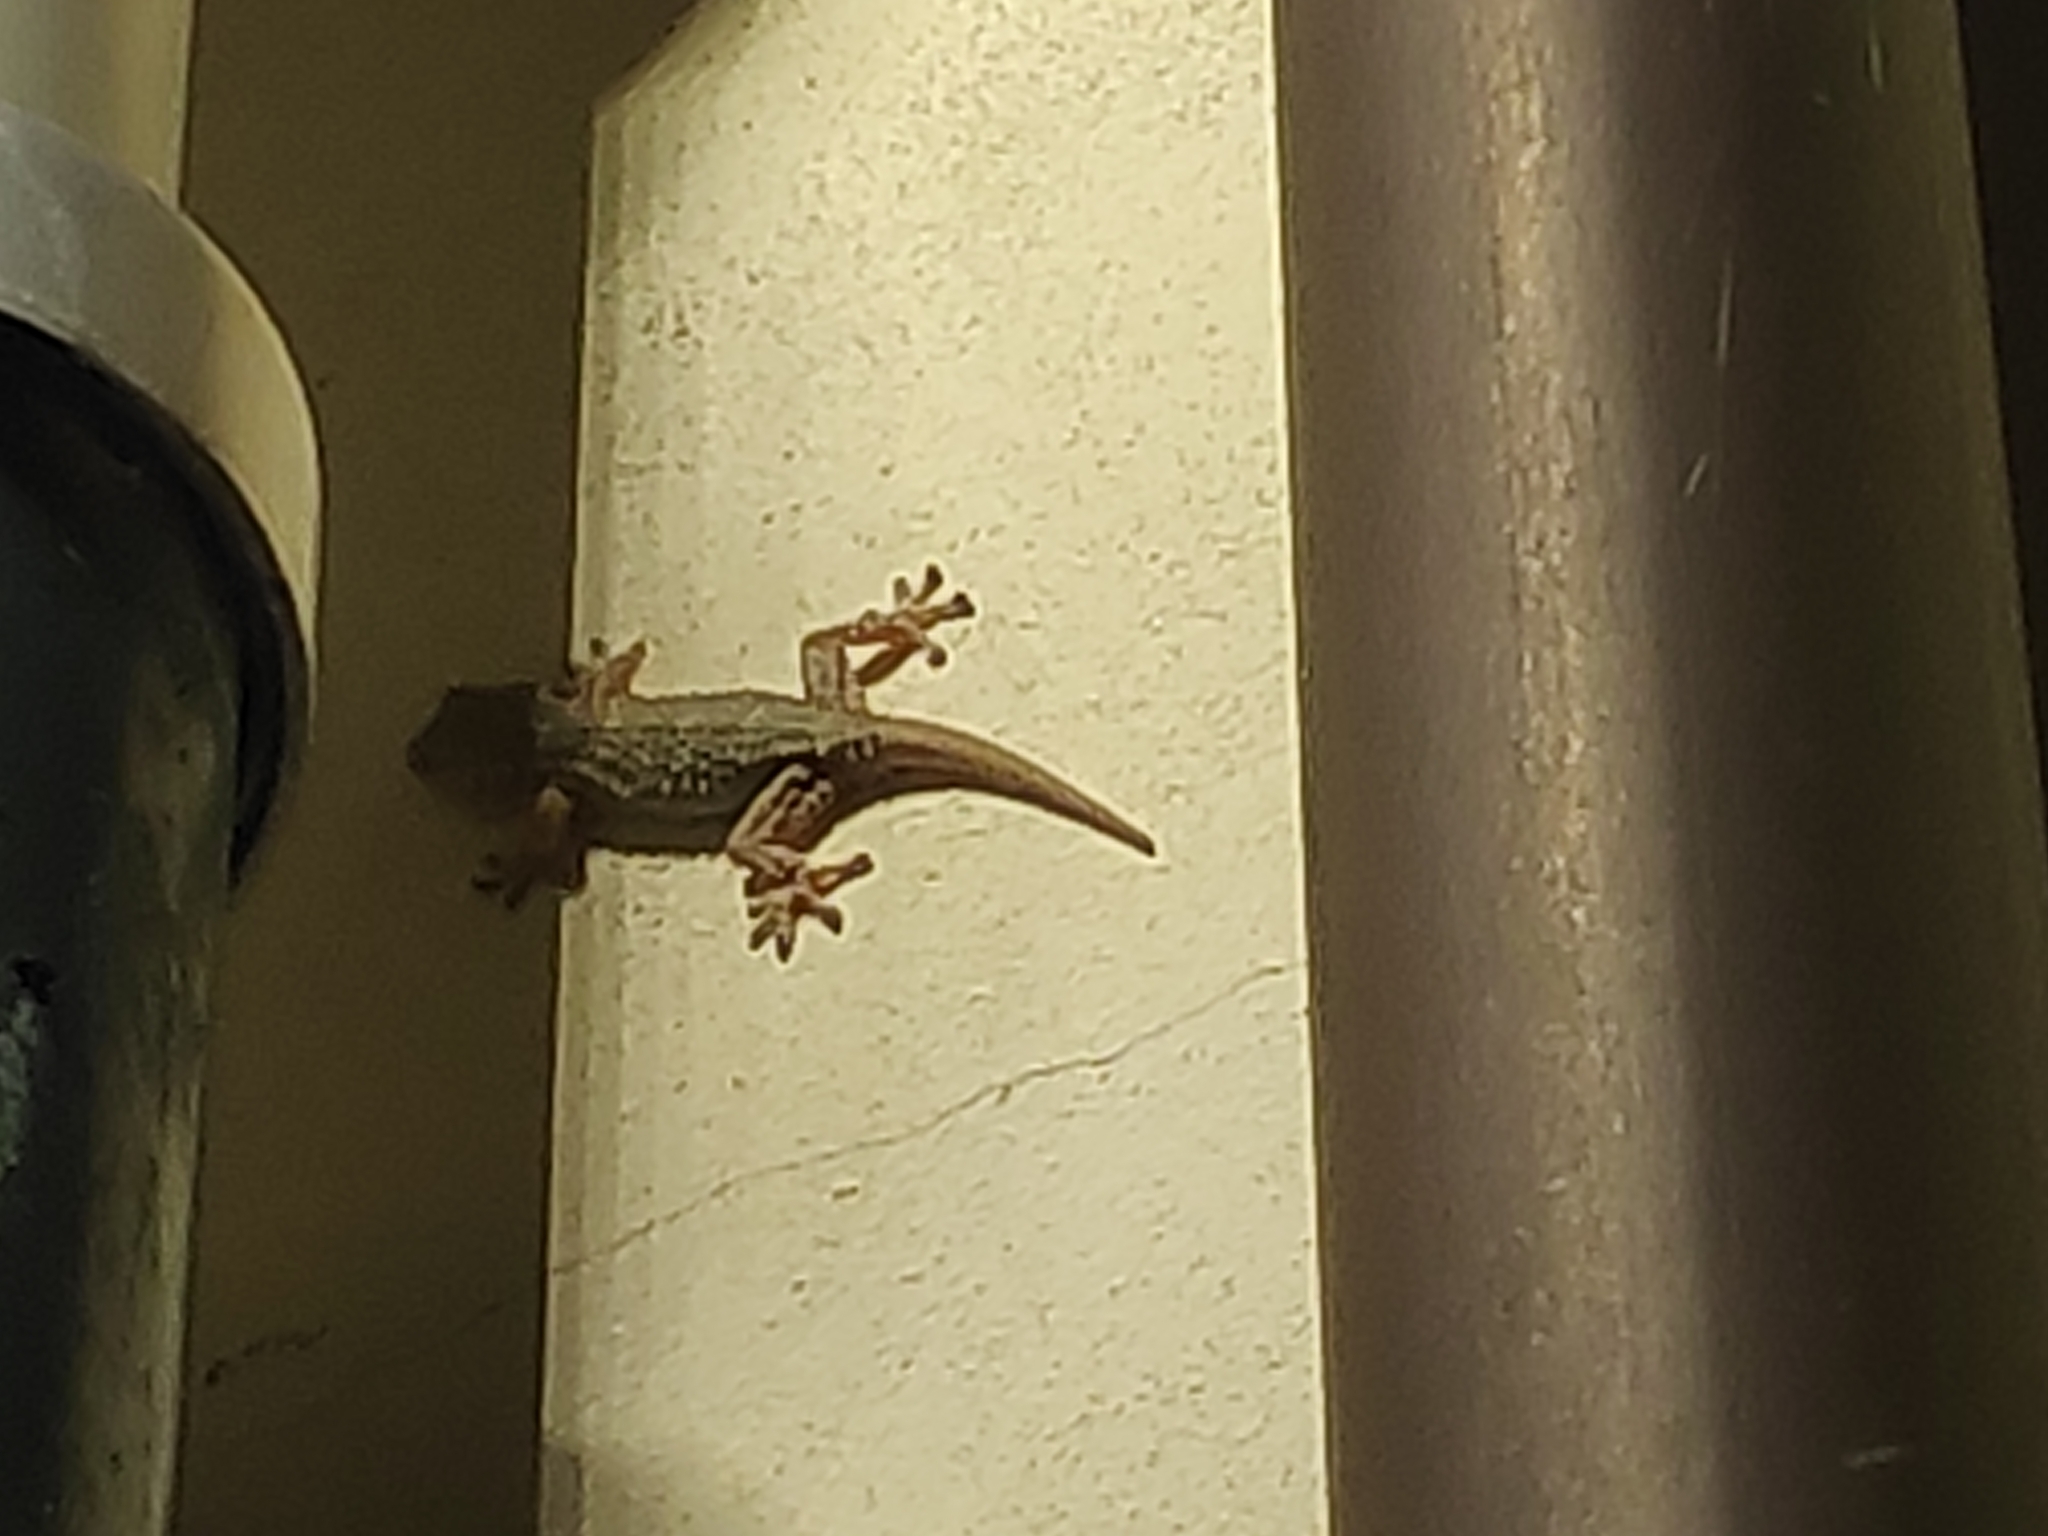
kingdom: Animalia
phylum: Chordata
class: Squamata
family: Phyllodactylidae
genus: Tarentola
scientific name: Tarentola mauritanica
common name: Moorish gecko
